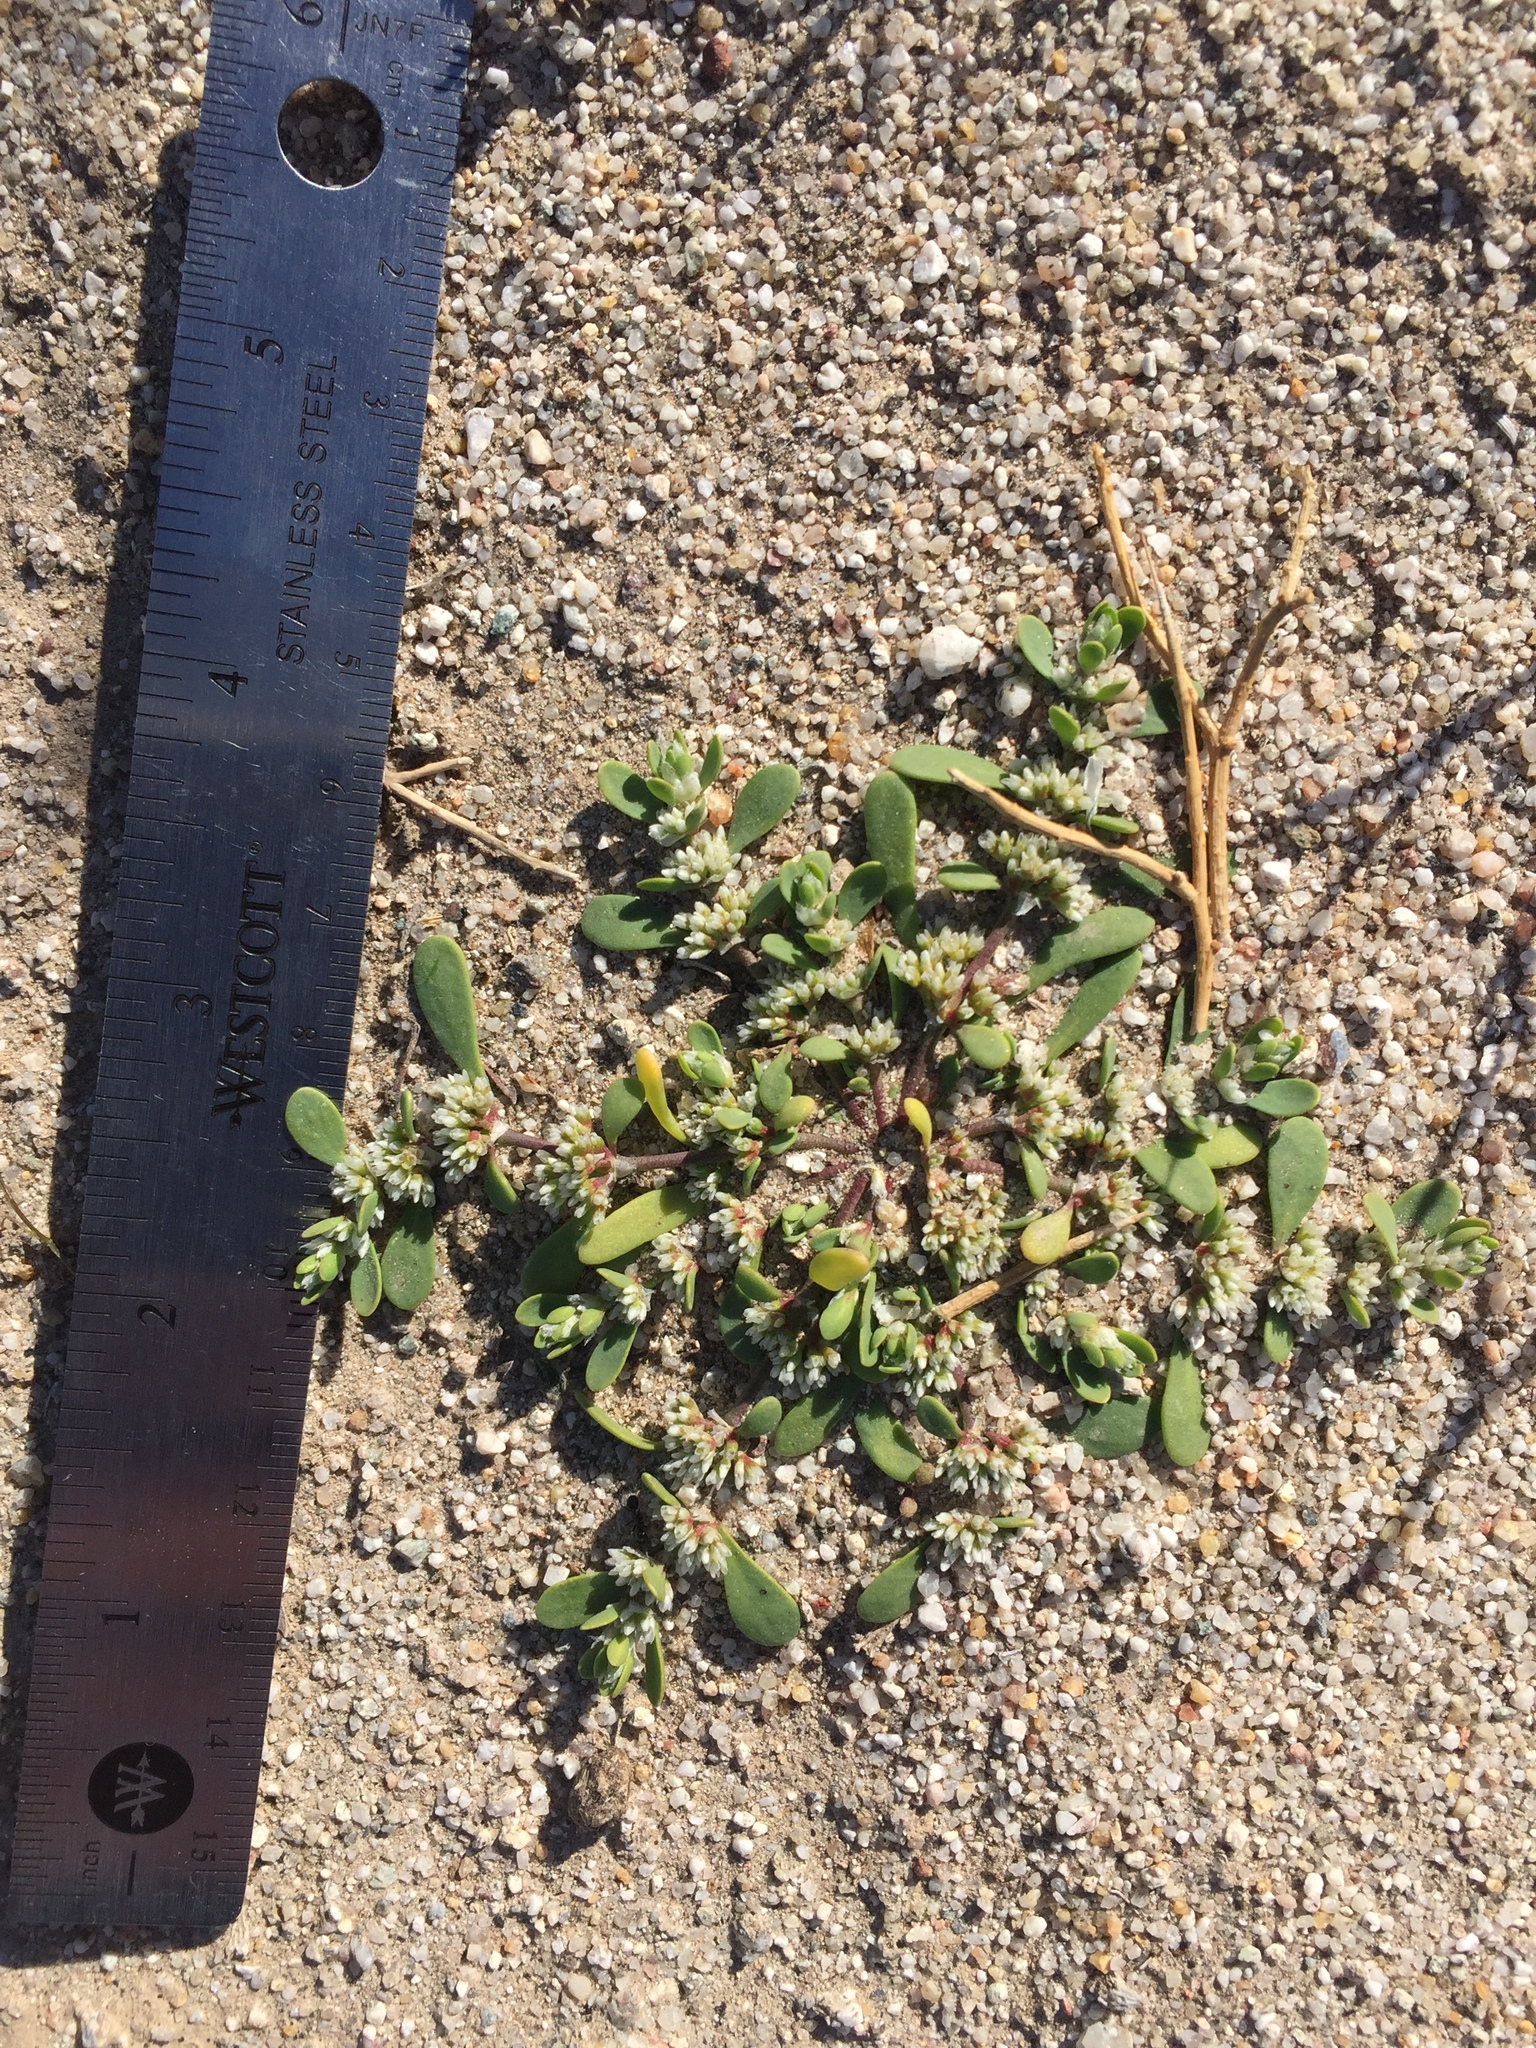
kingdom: Plantae
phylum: Tracheophyta
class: Magnoliopsida
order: Caryophyllales
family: Caryophyllaceae
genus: Achyronychia
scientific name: Achyronychia cooperi
